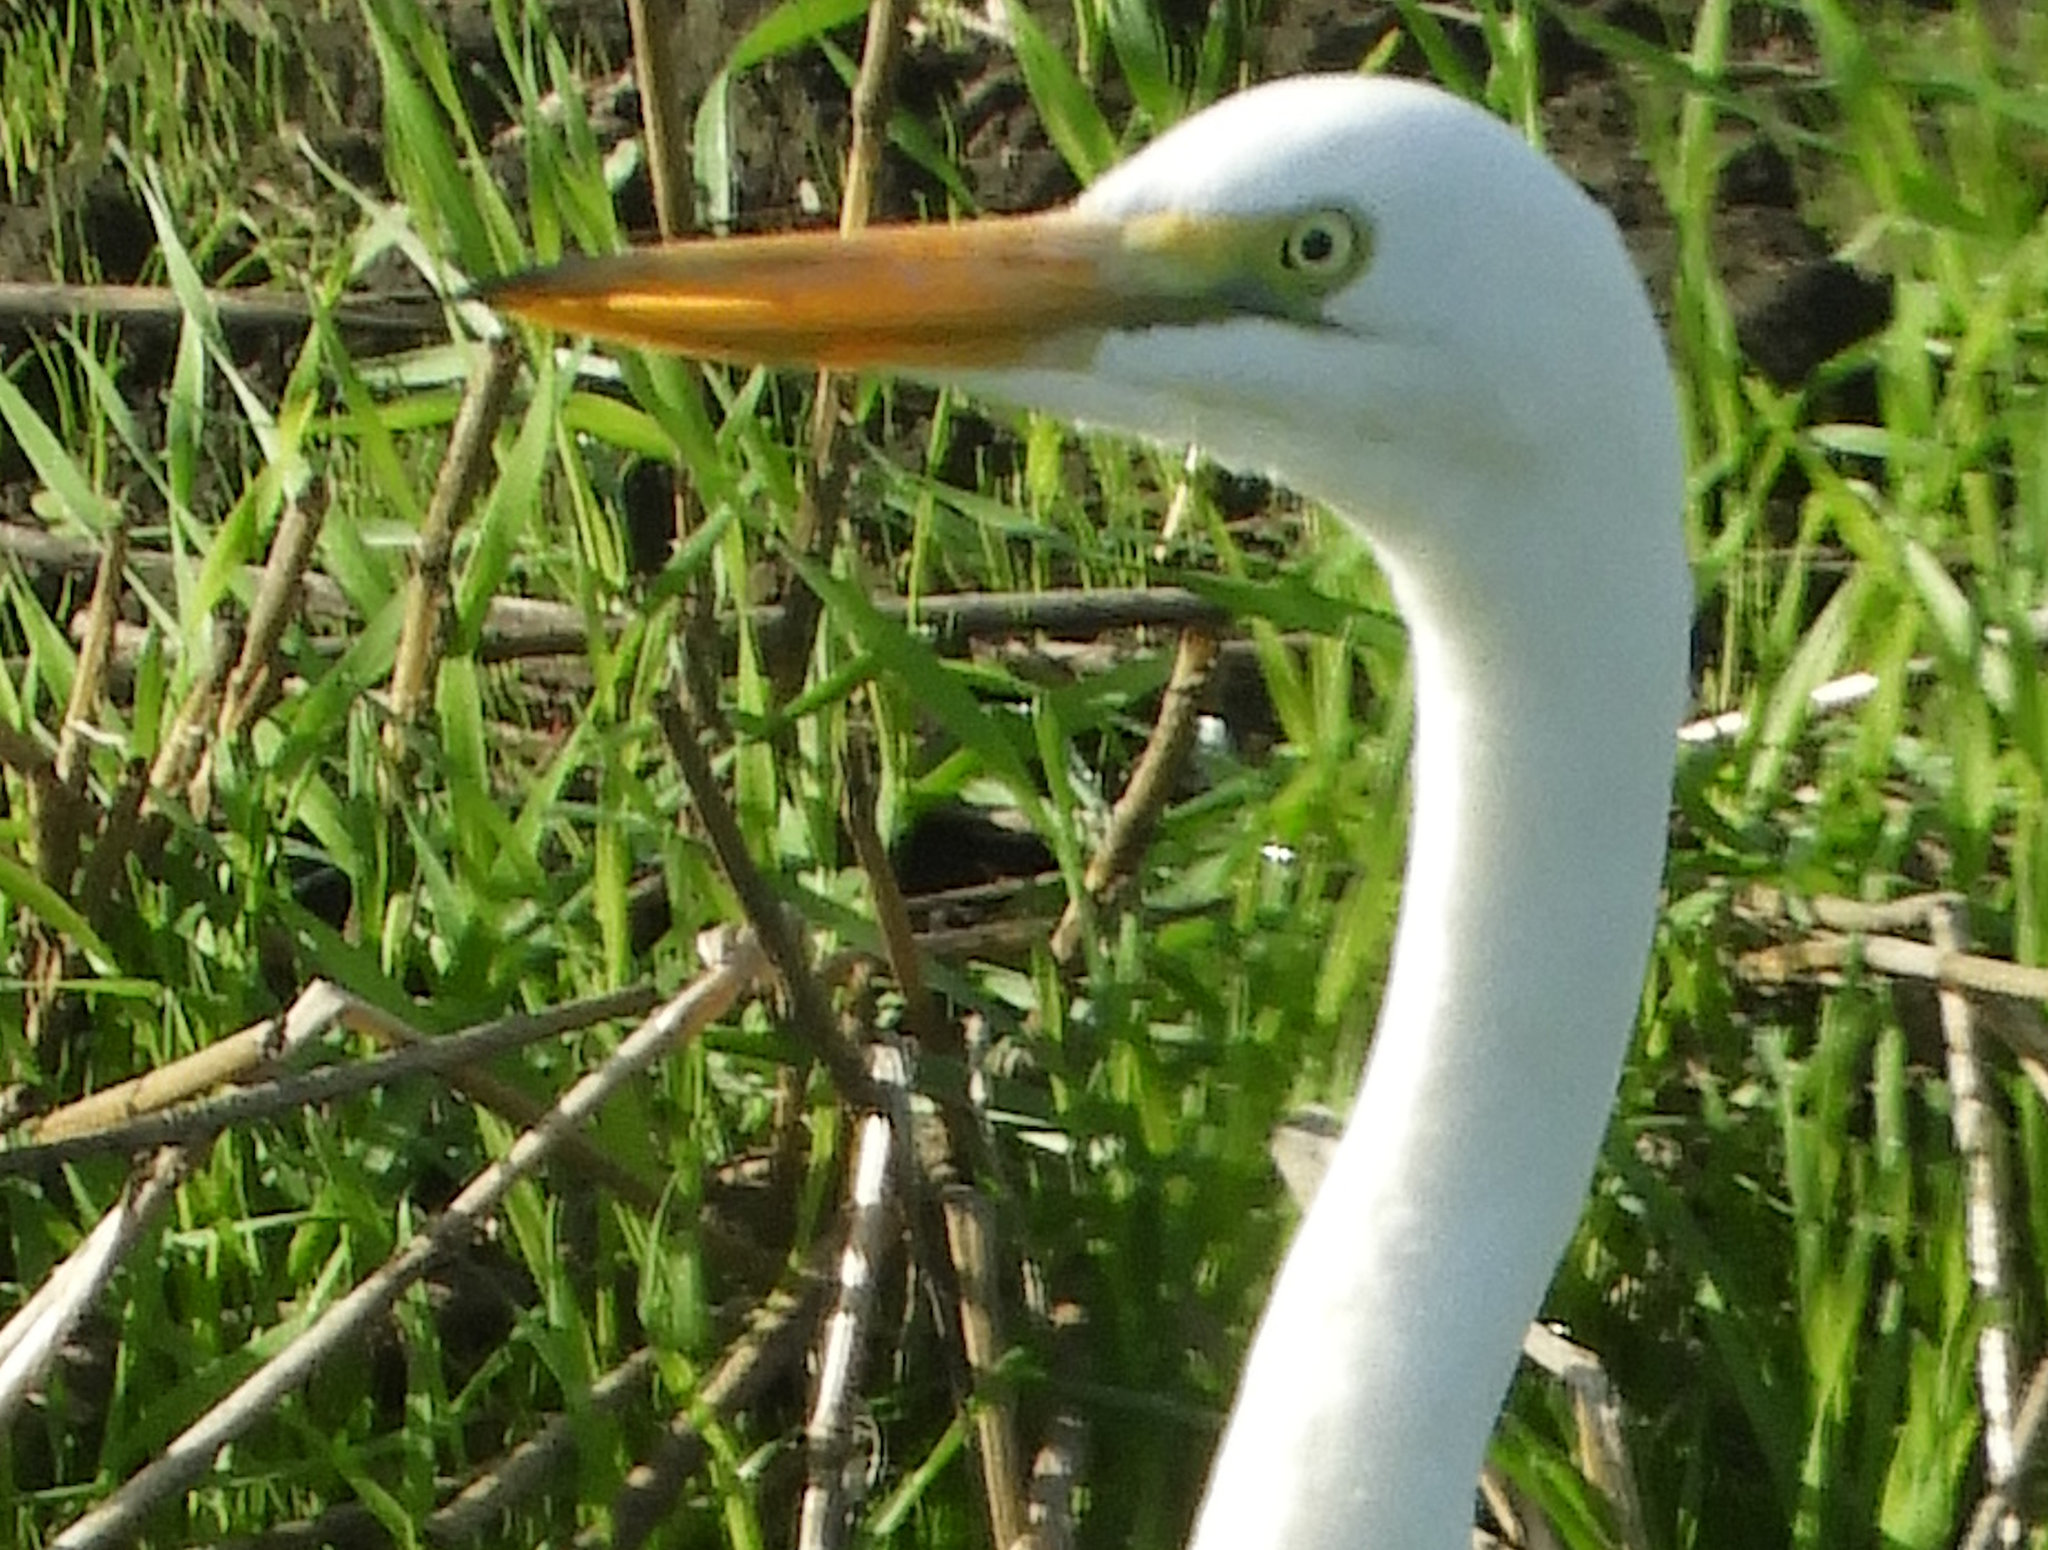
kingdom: Animalia
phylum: Chordata
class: Aves
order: Pelecaniformes
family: Ardeidae
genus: Ardea
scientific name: Ardea alba
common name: Great egret
